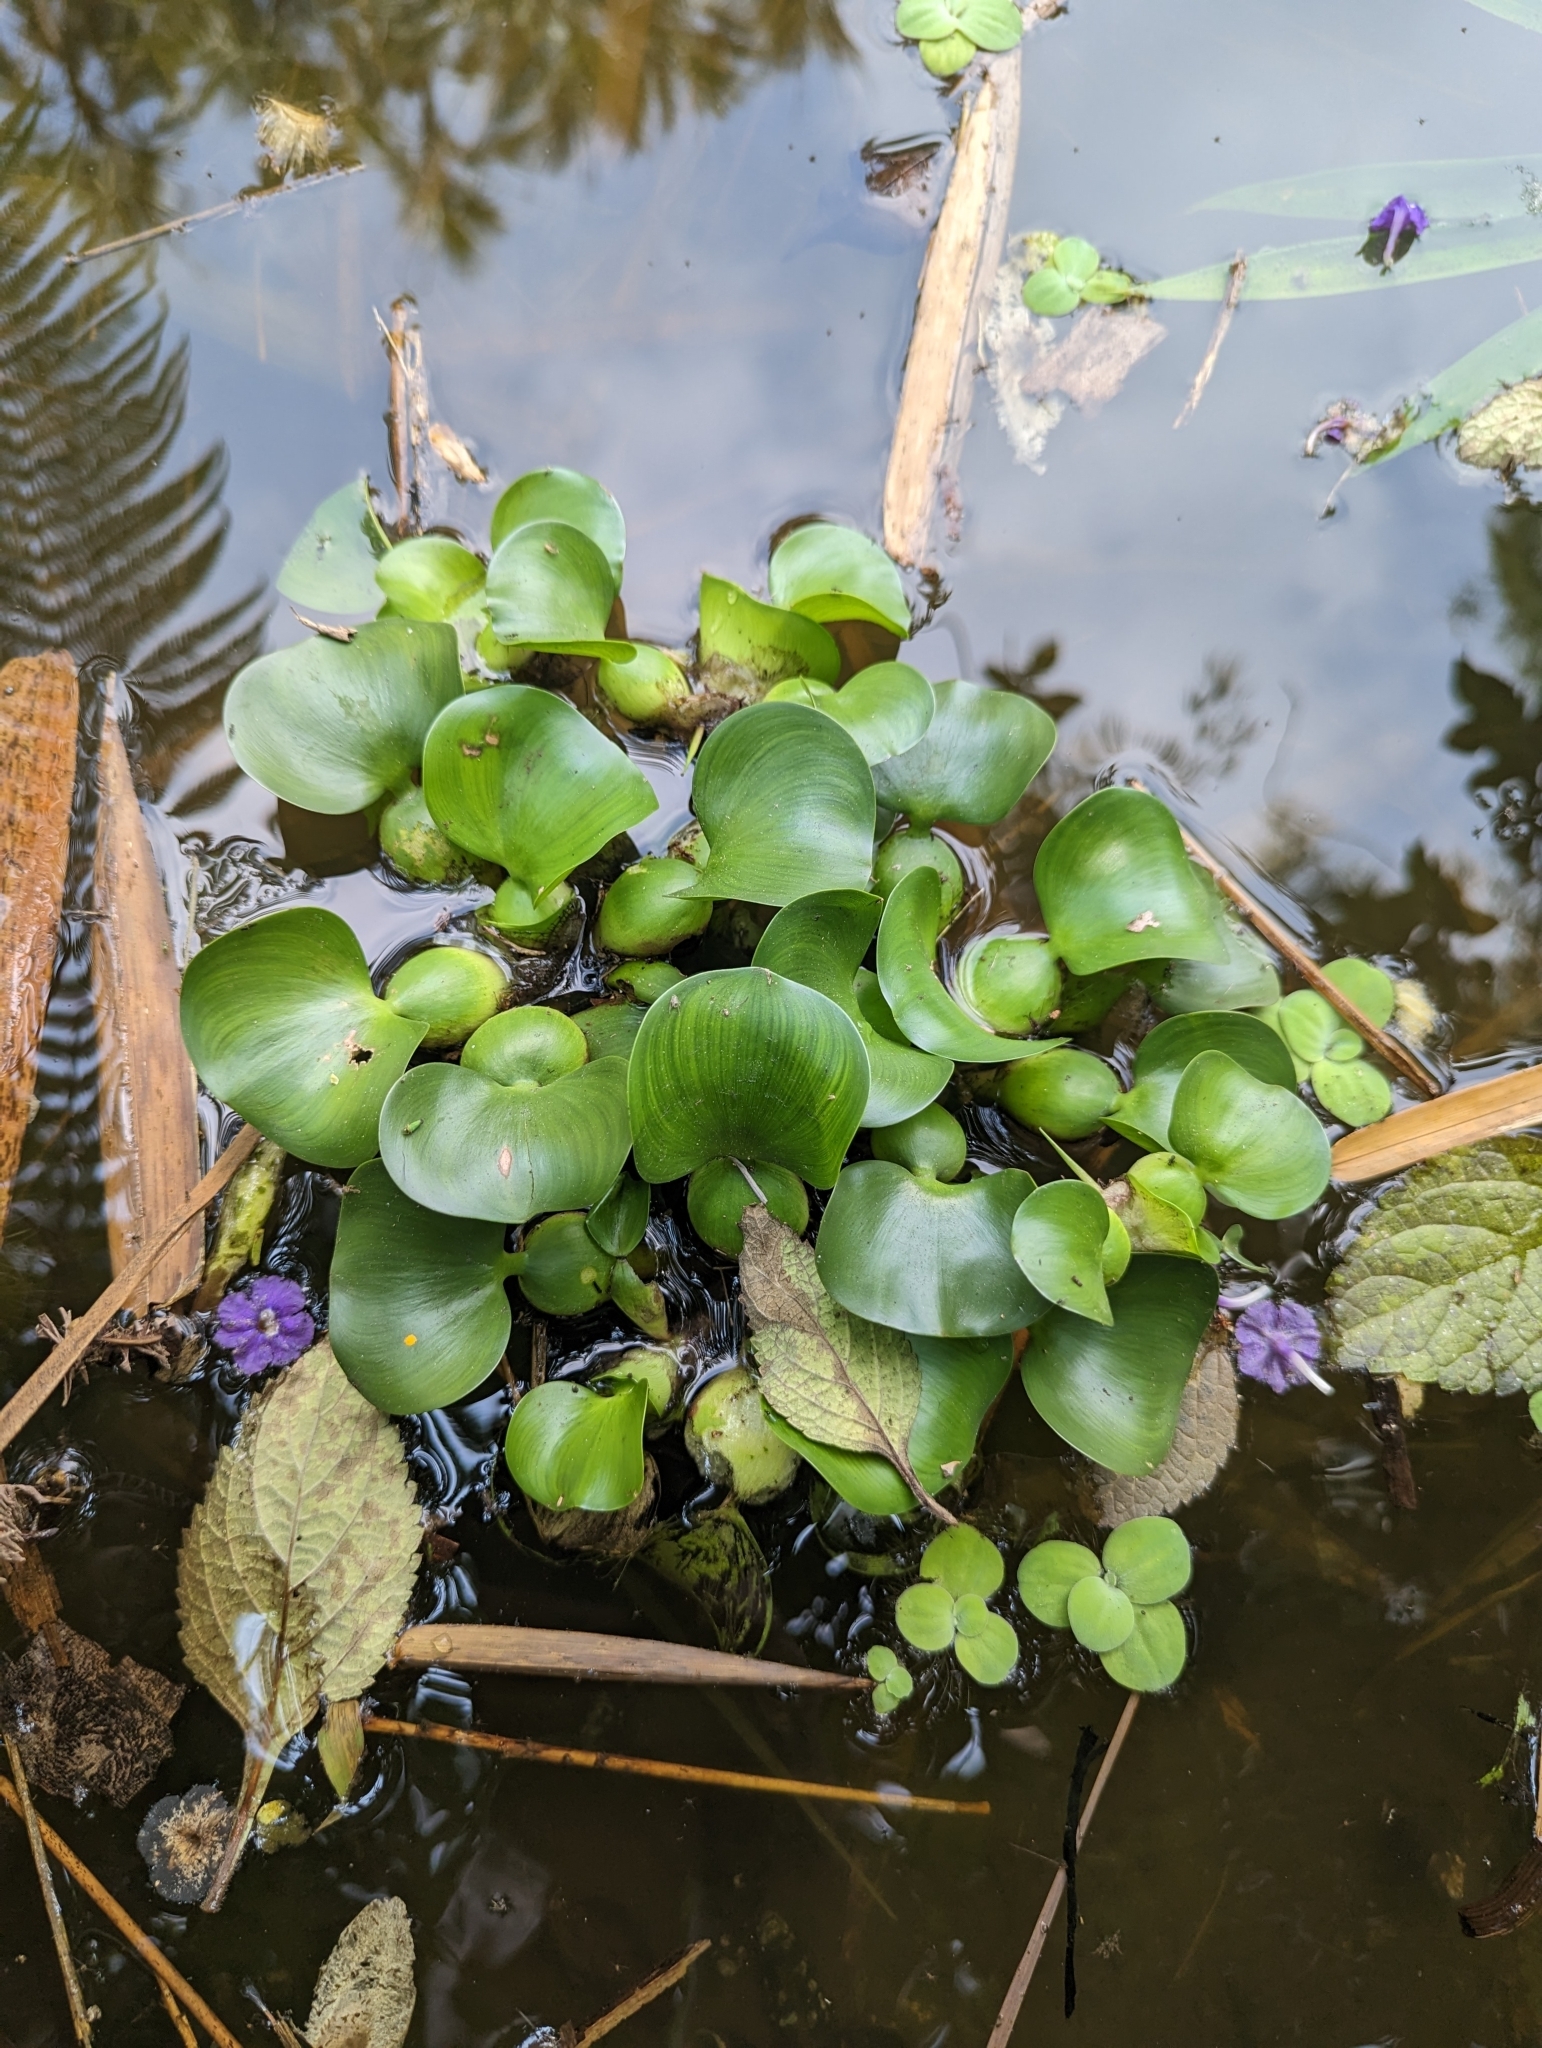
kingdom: Plantae
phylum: Tracheophyta
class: Liliopsida
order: Commelinales
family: Pontederiaceae
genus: Pontederia
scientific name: Pontederia crassipes
